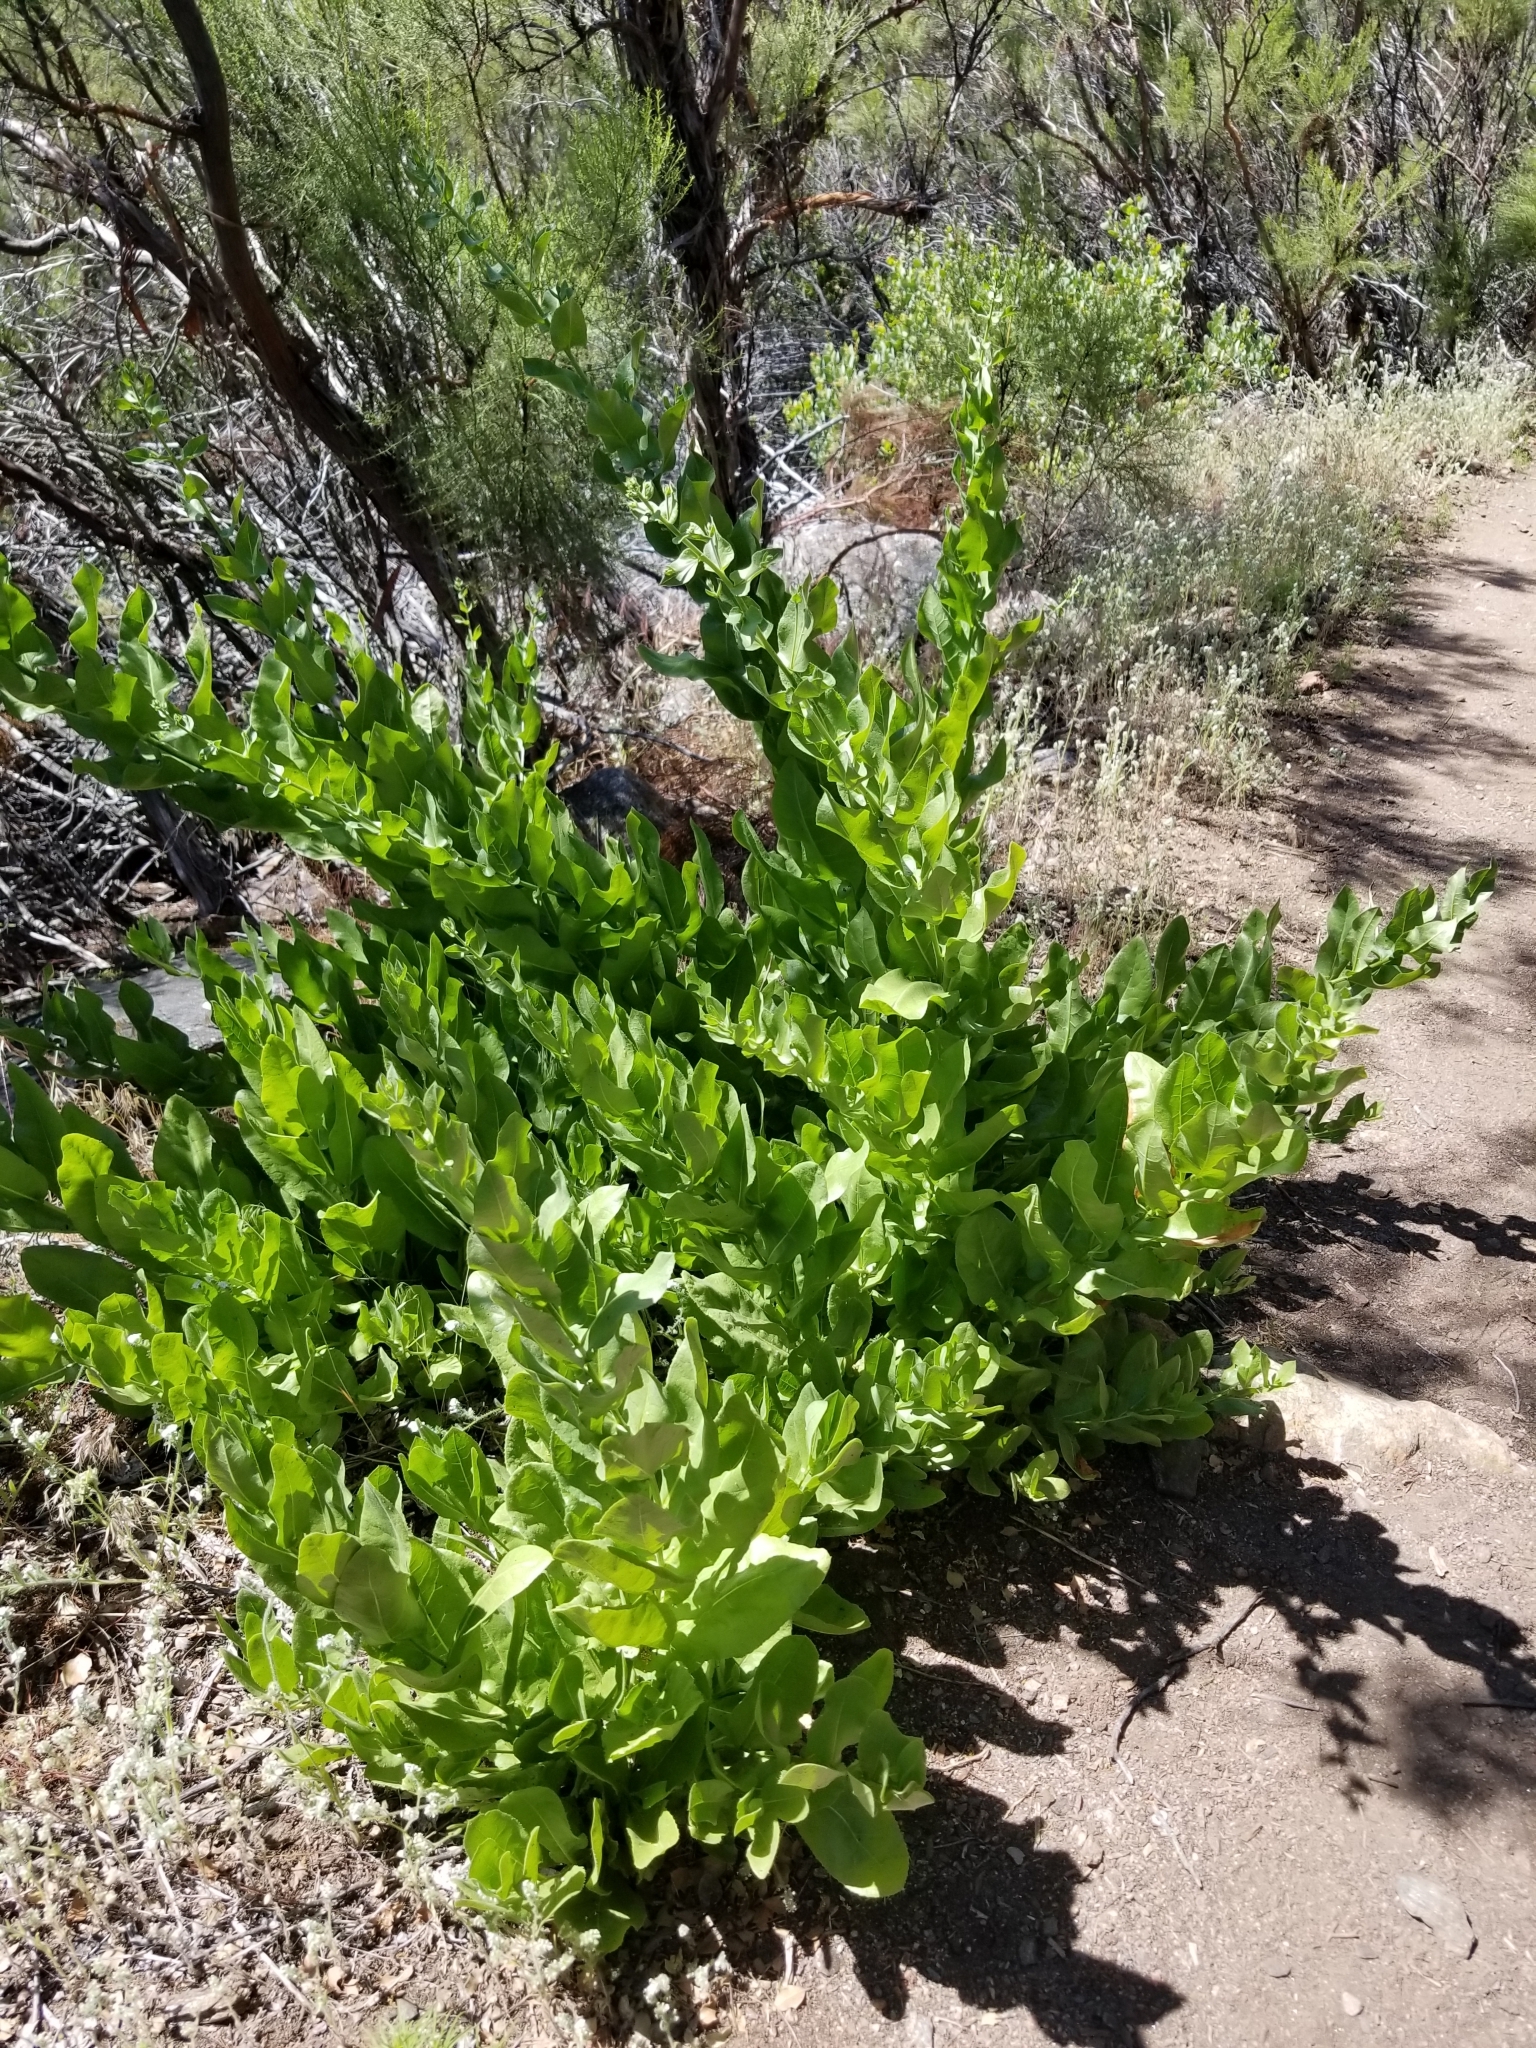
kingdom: Plantae
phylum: Tracheophyta
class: Magnoliopsida
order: Asterales
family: Asteraceae
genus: Acourtia
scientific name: Acourtia microcephala
